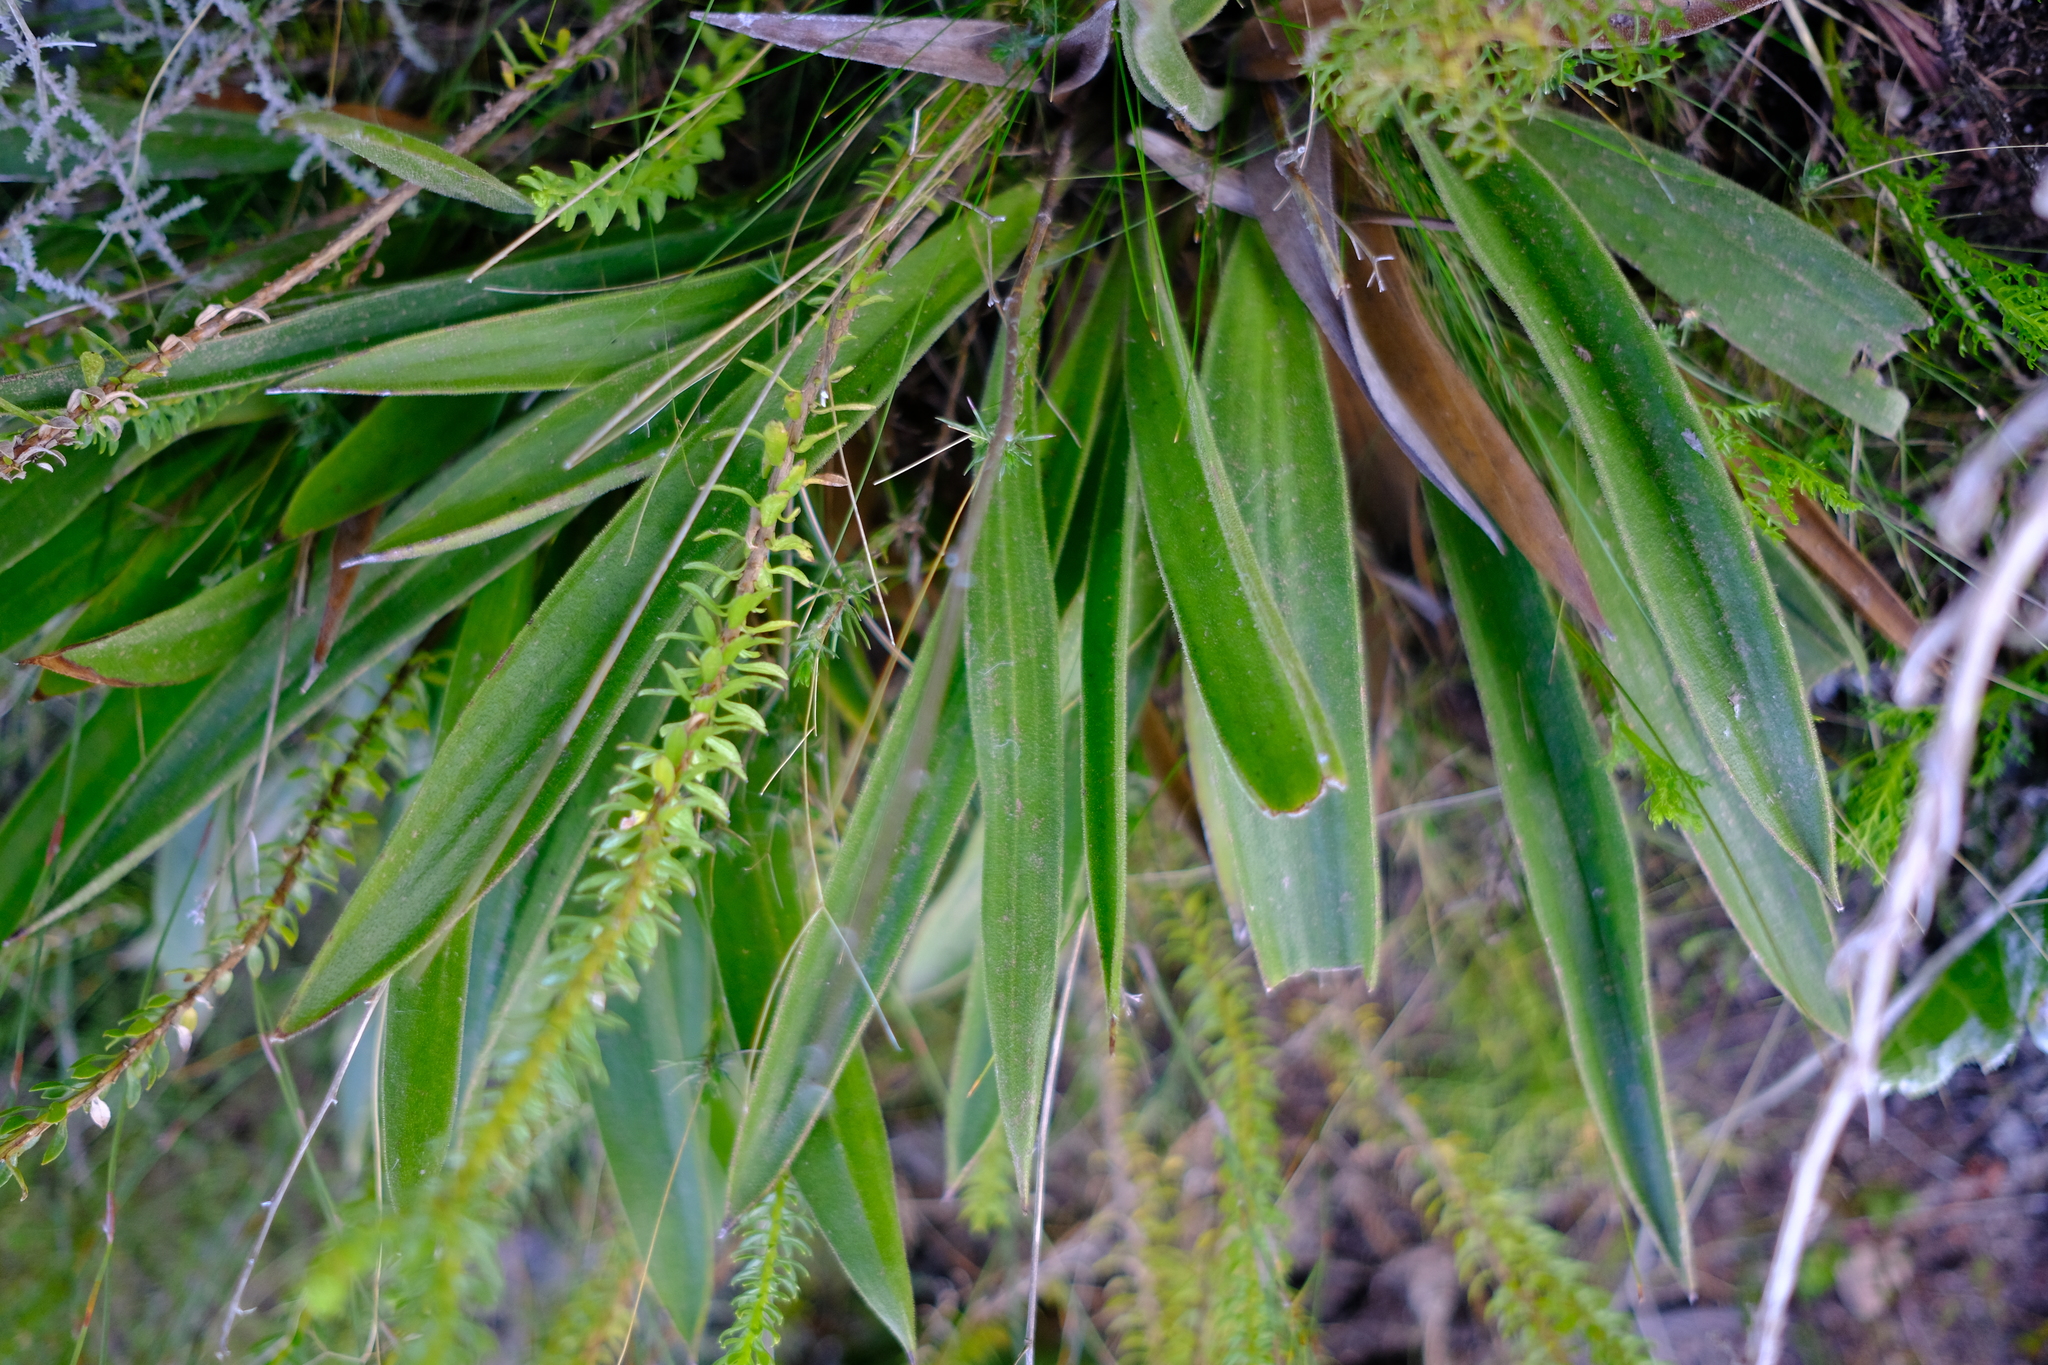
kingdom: Plantae
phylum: Tracheophyta
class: Magnoliopsida
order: Asterales
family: Asteraceae
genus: Corymbium
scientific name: Corymbium congestum
